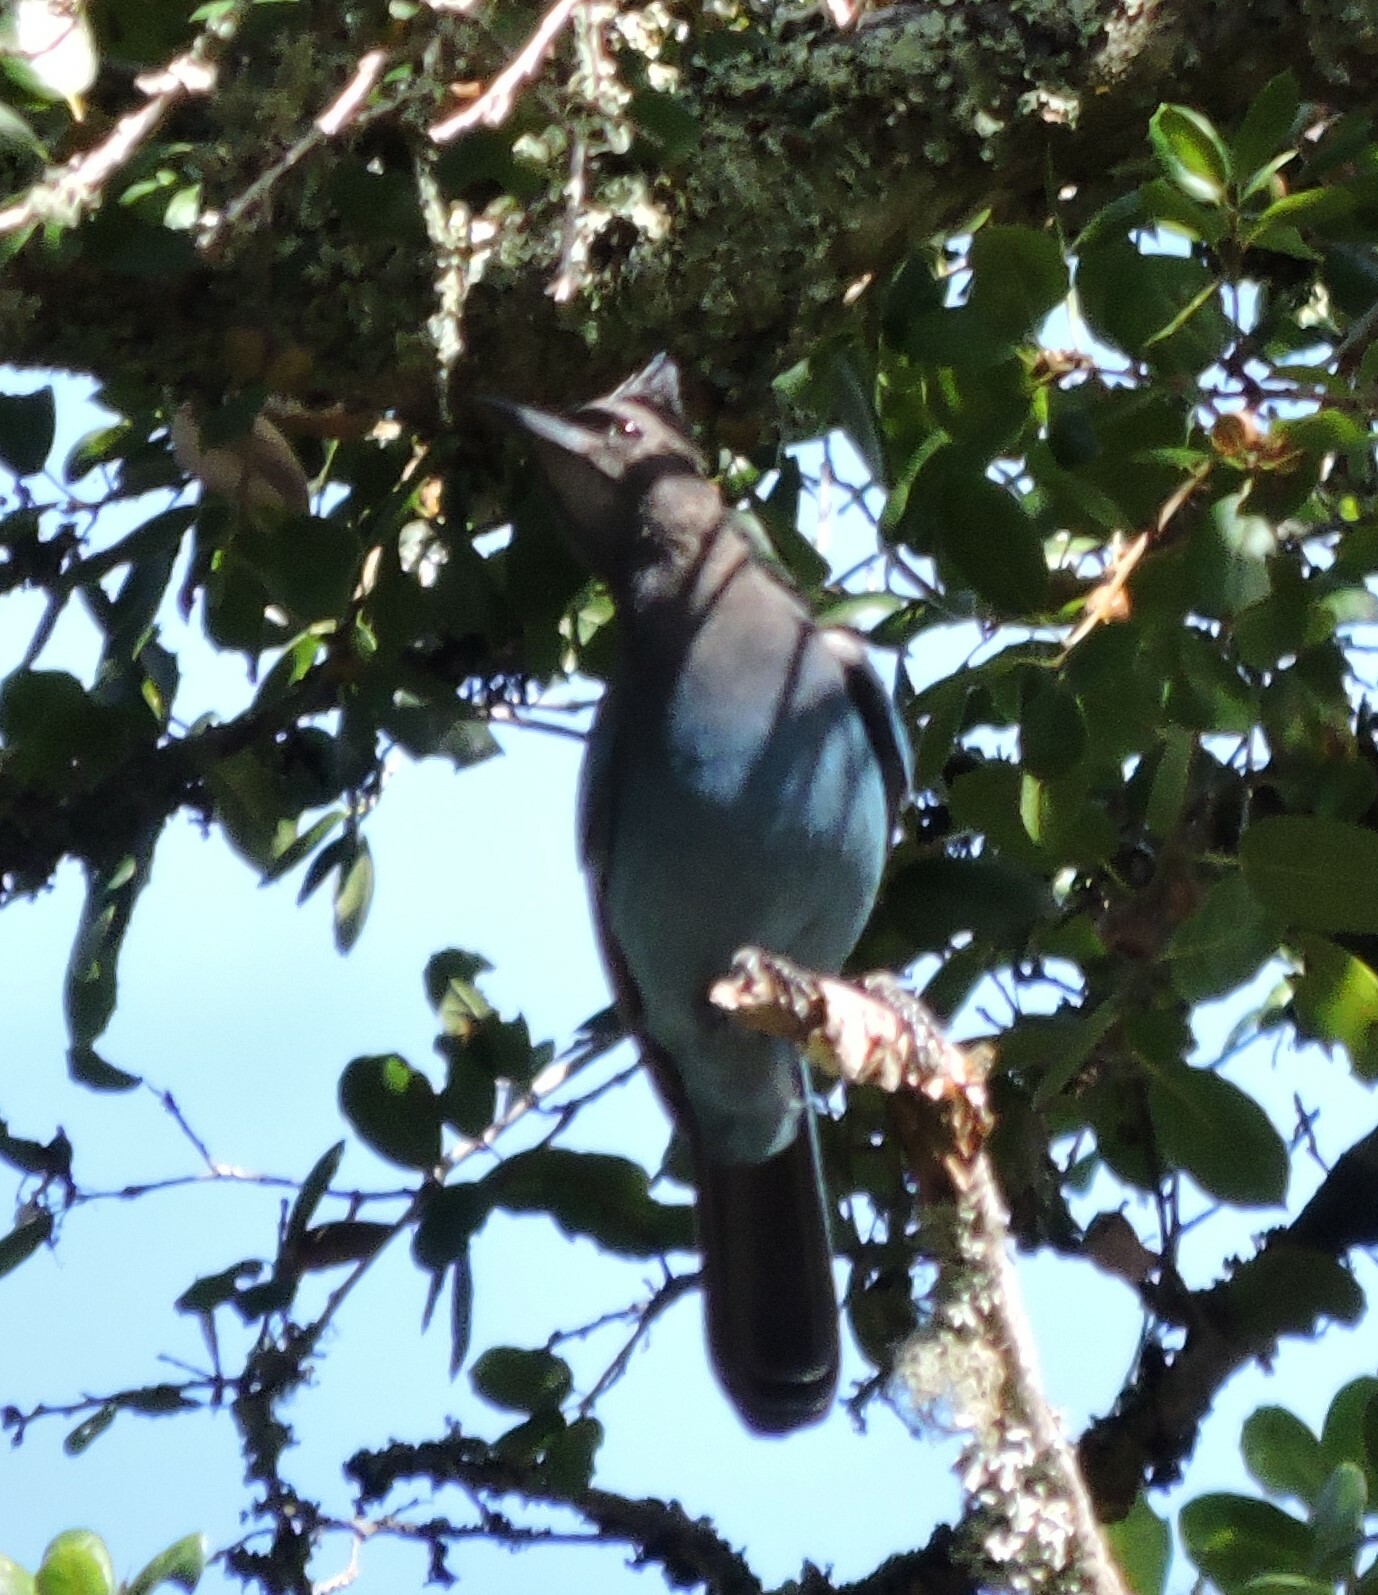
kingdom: Animalia
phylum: Chordata
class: Aves
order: Passeriformes
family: Corvidae
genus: Cyanocitta
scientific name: Cyanocitta stelleri
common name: Steller's jay
